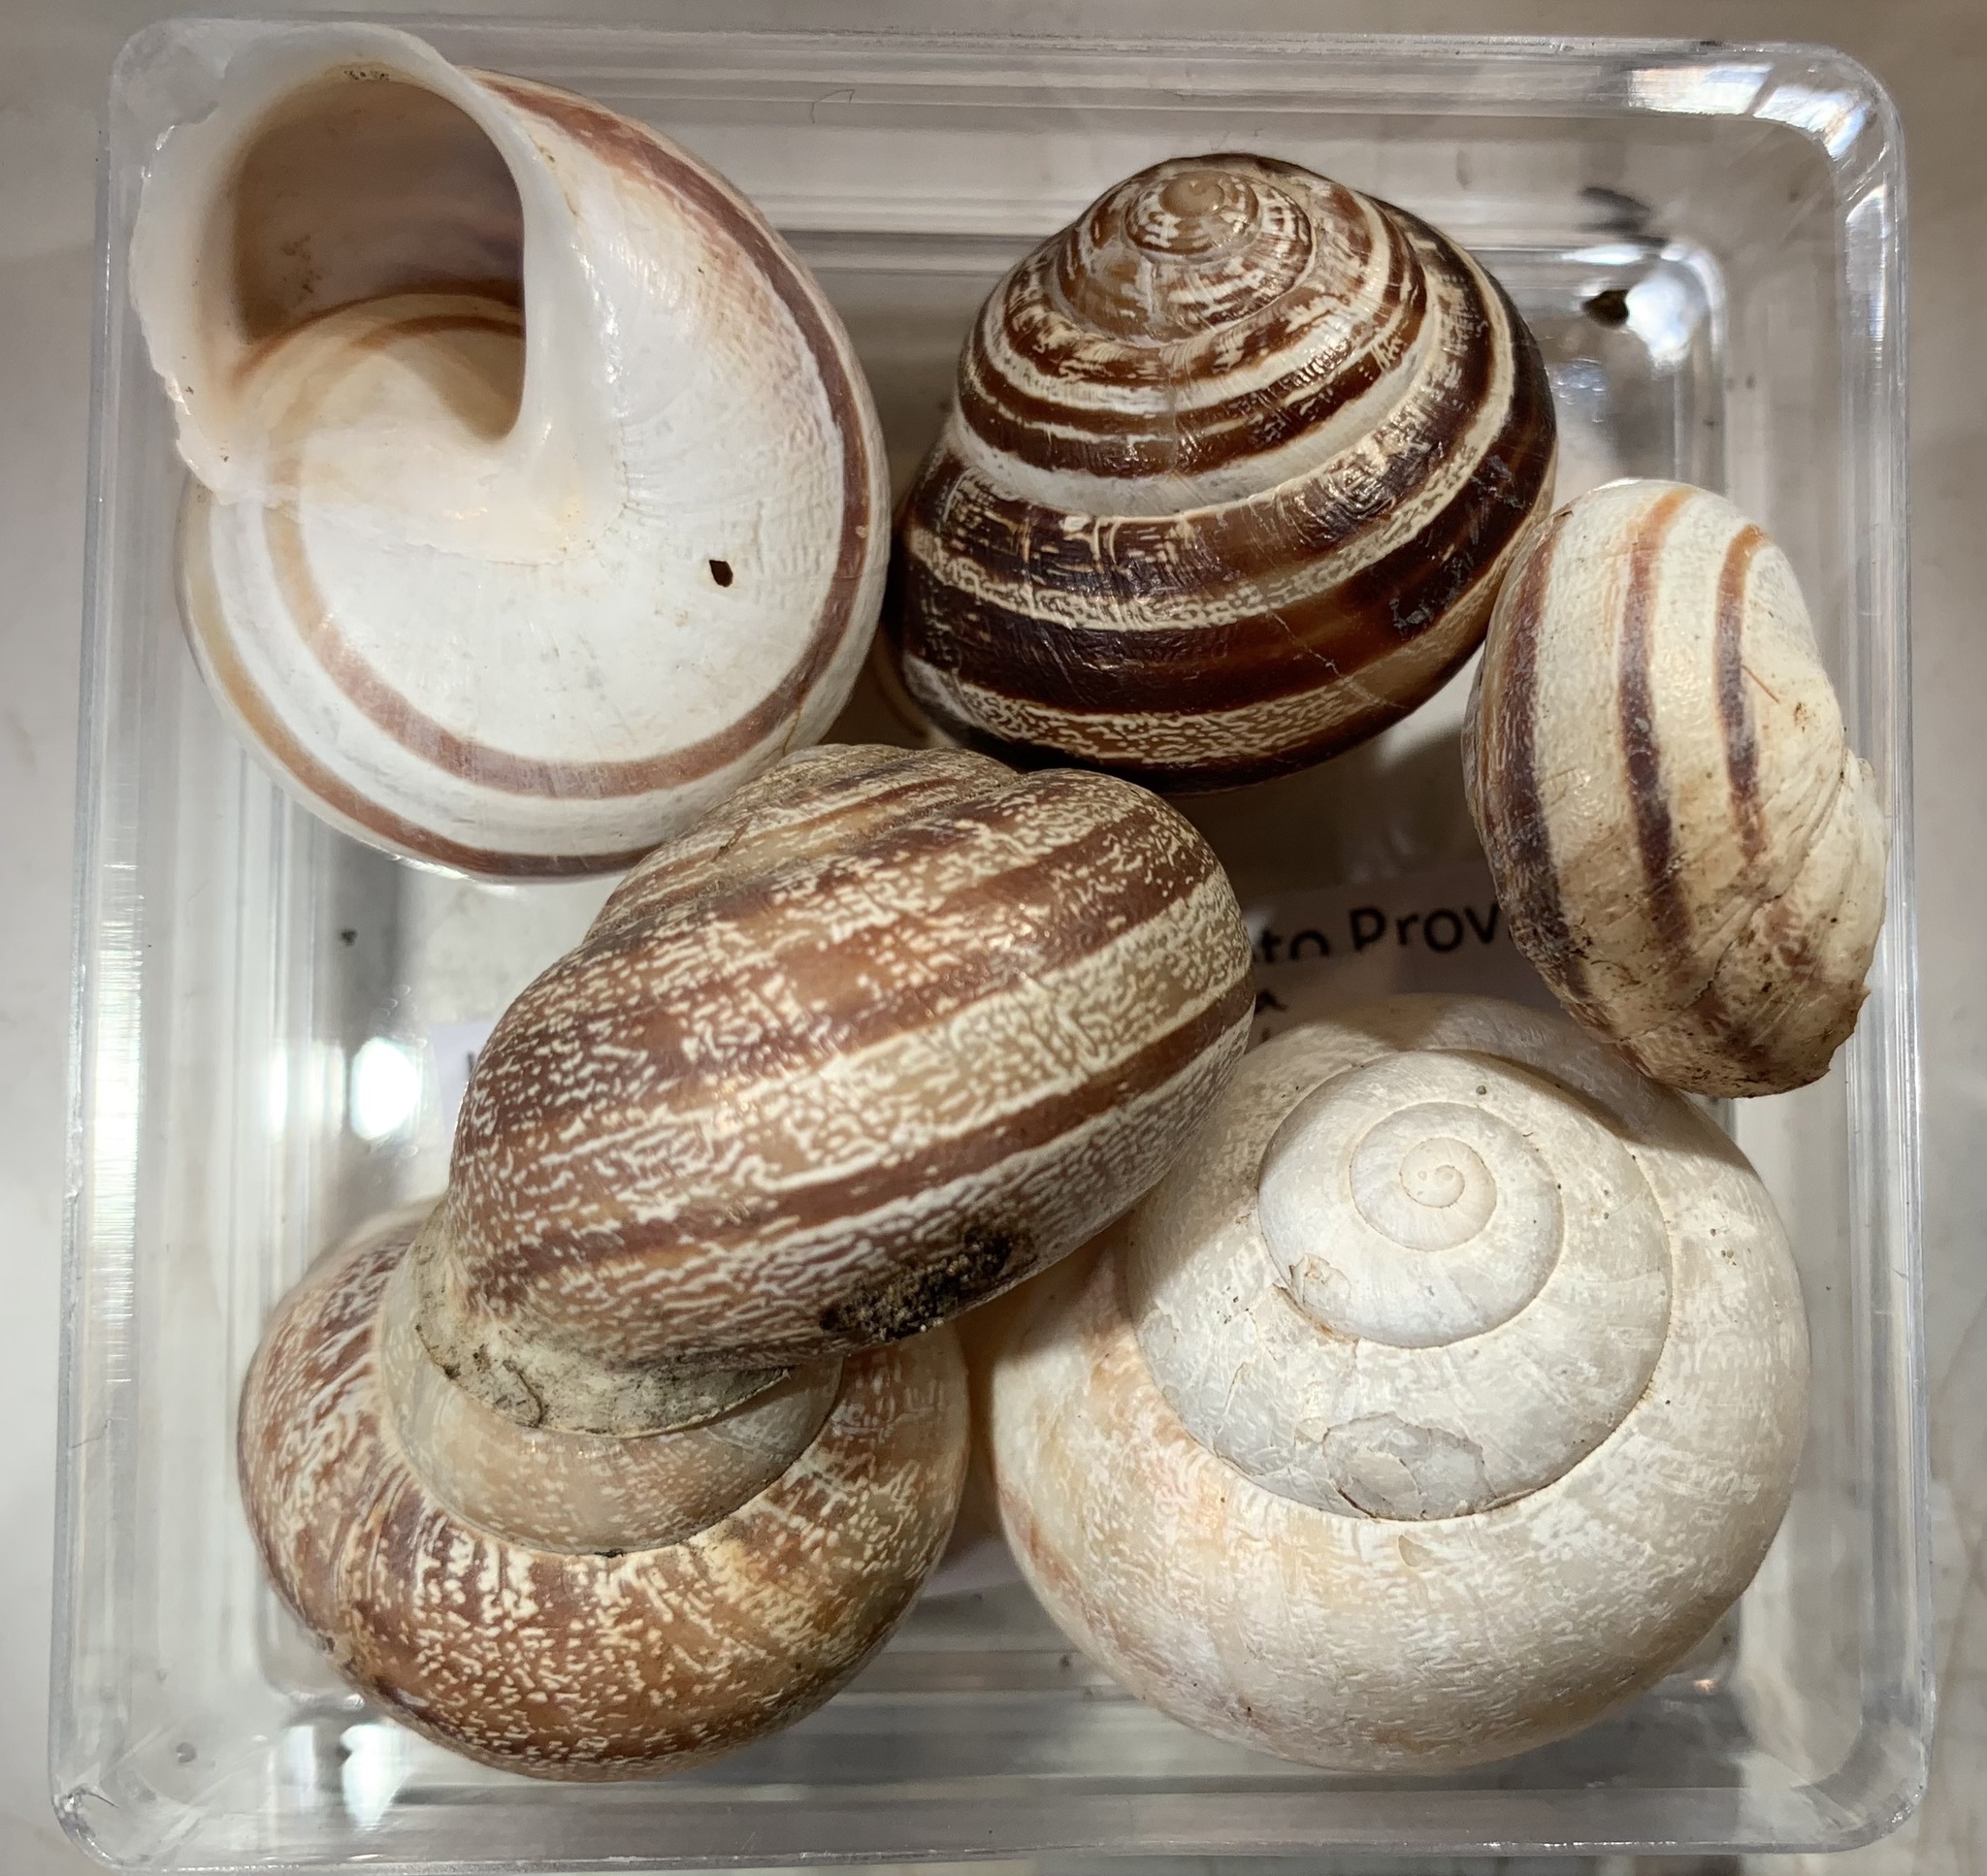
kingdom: Animalia
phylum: Mollusca
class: Gastropoda
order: Stylommatophora
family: Helicidae
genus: Eobania
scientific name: Eobania vermiculata
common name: Chocolateband snail
